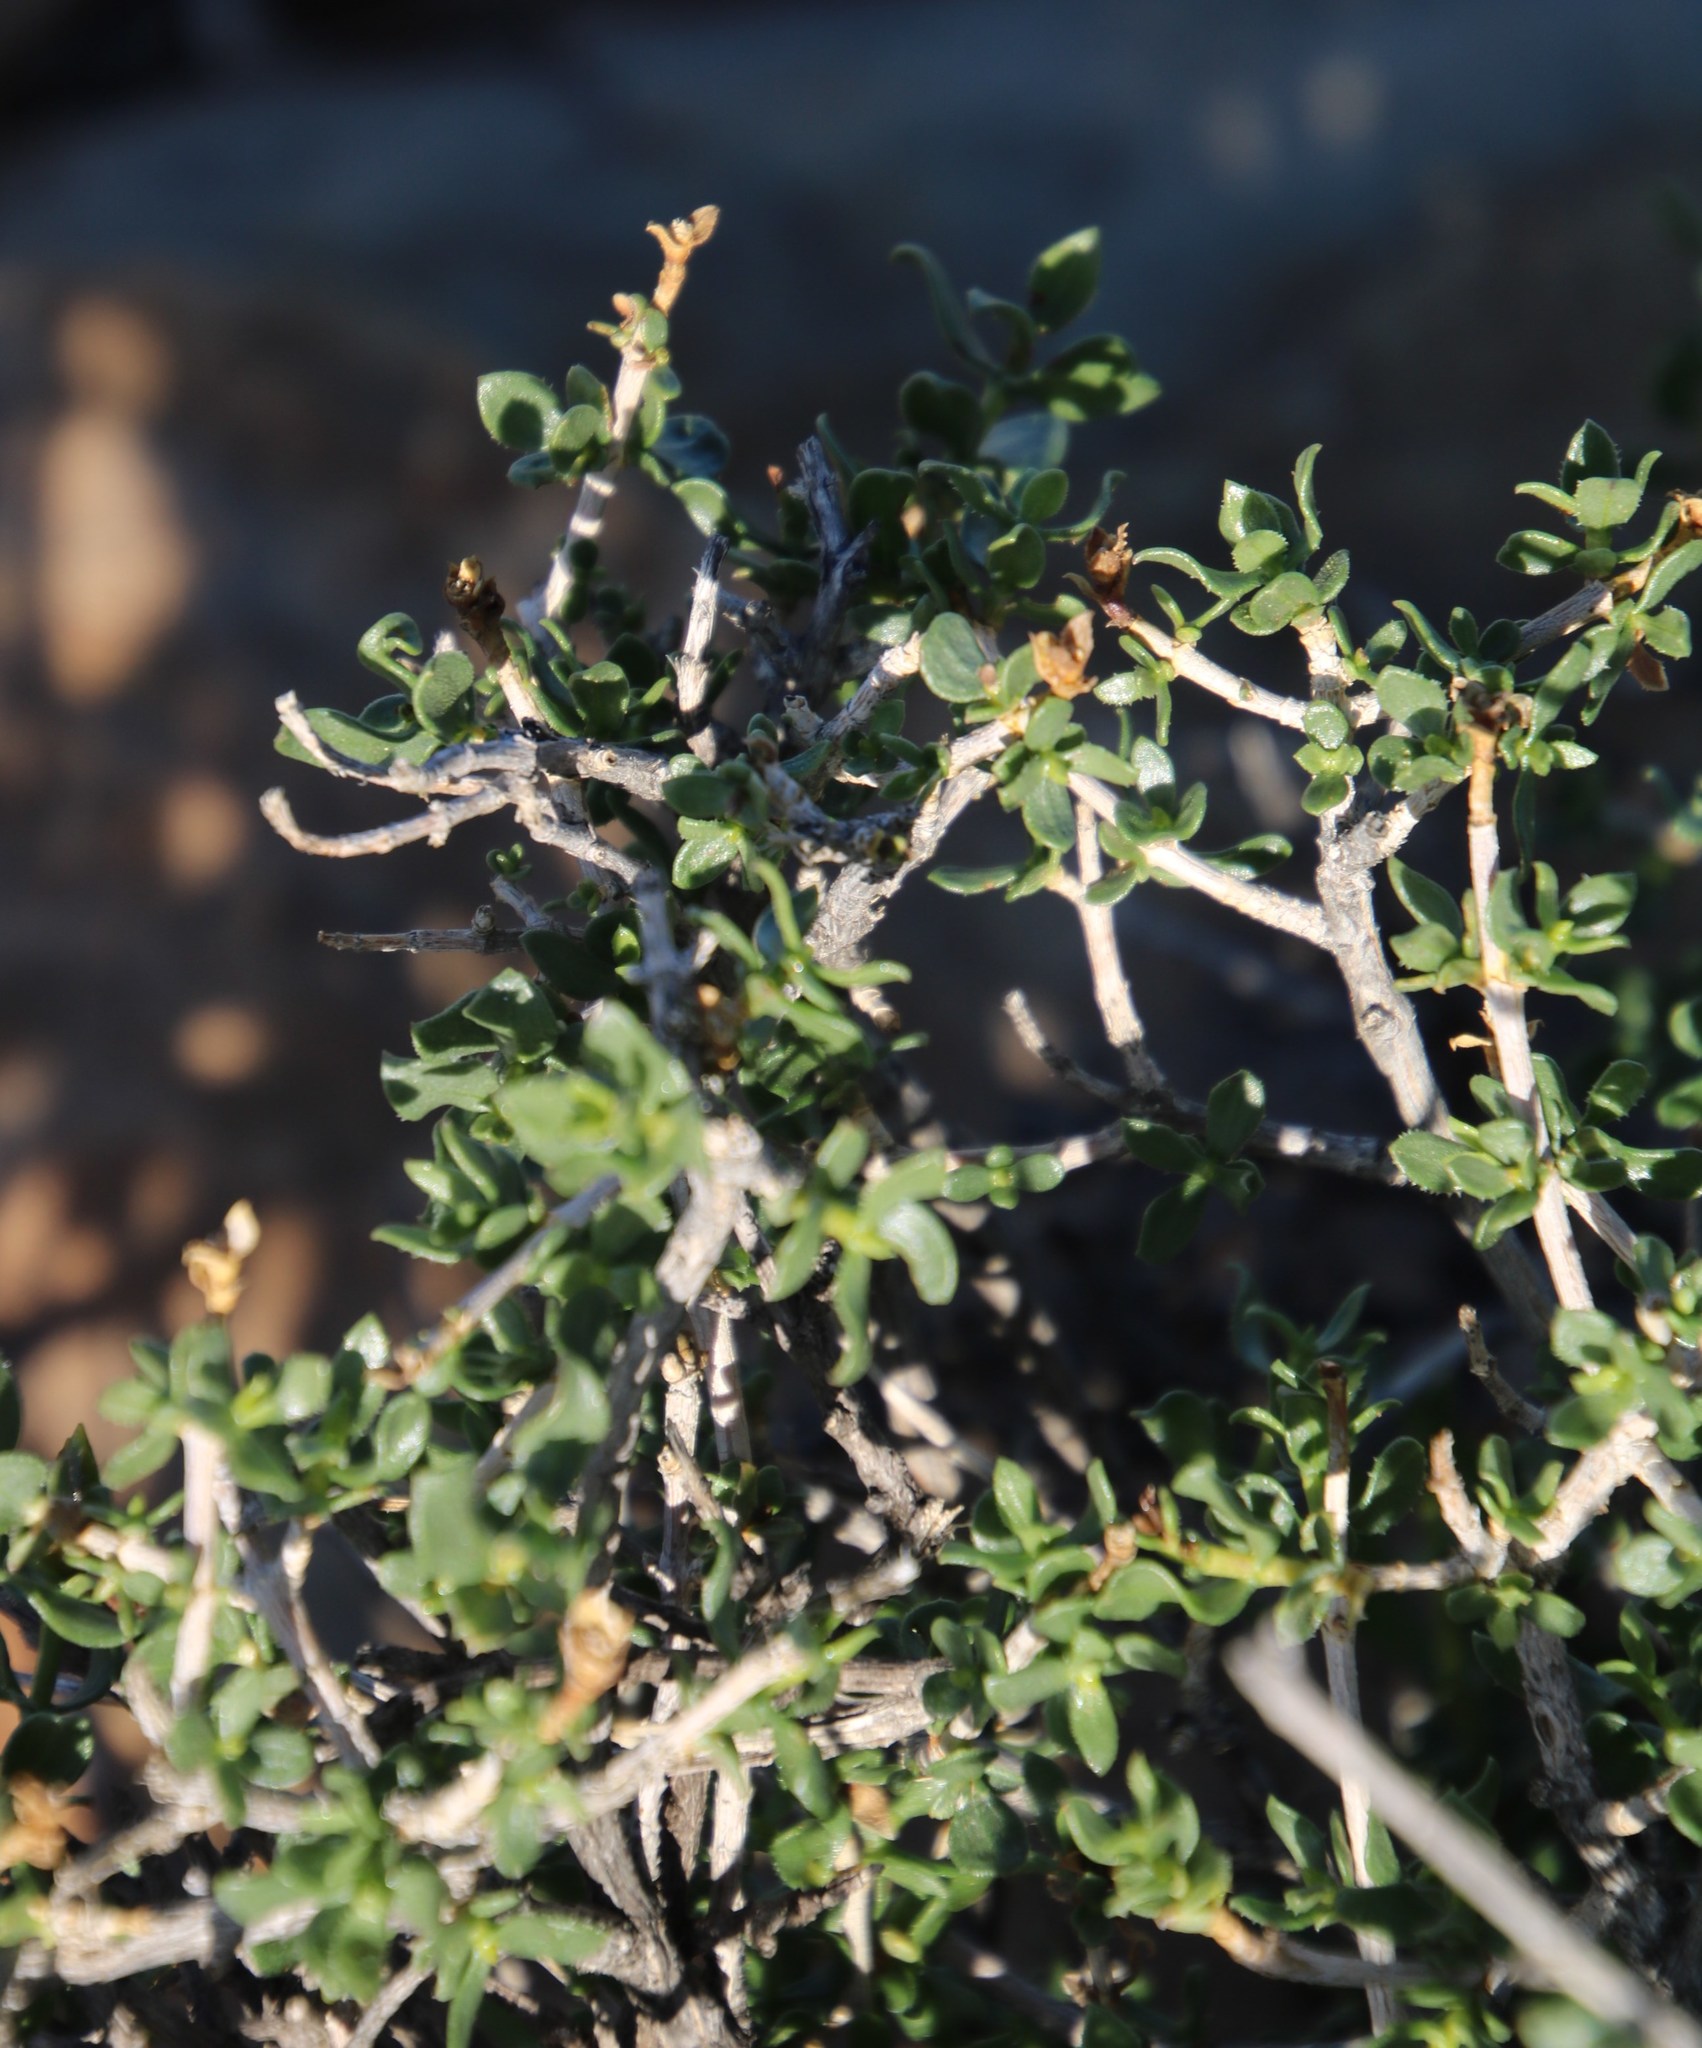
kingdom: Plantae
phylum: Tracheophyta
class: Magnoliopsida
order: Asterales
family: Asteraceae
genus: Pteronia
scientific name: Pteronia adenocarpa
